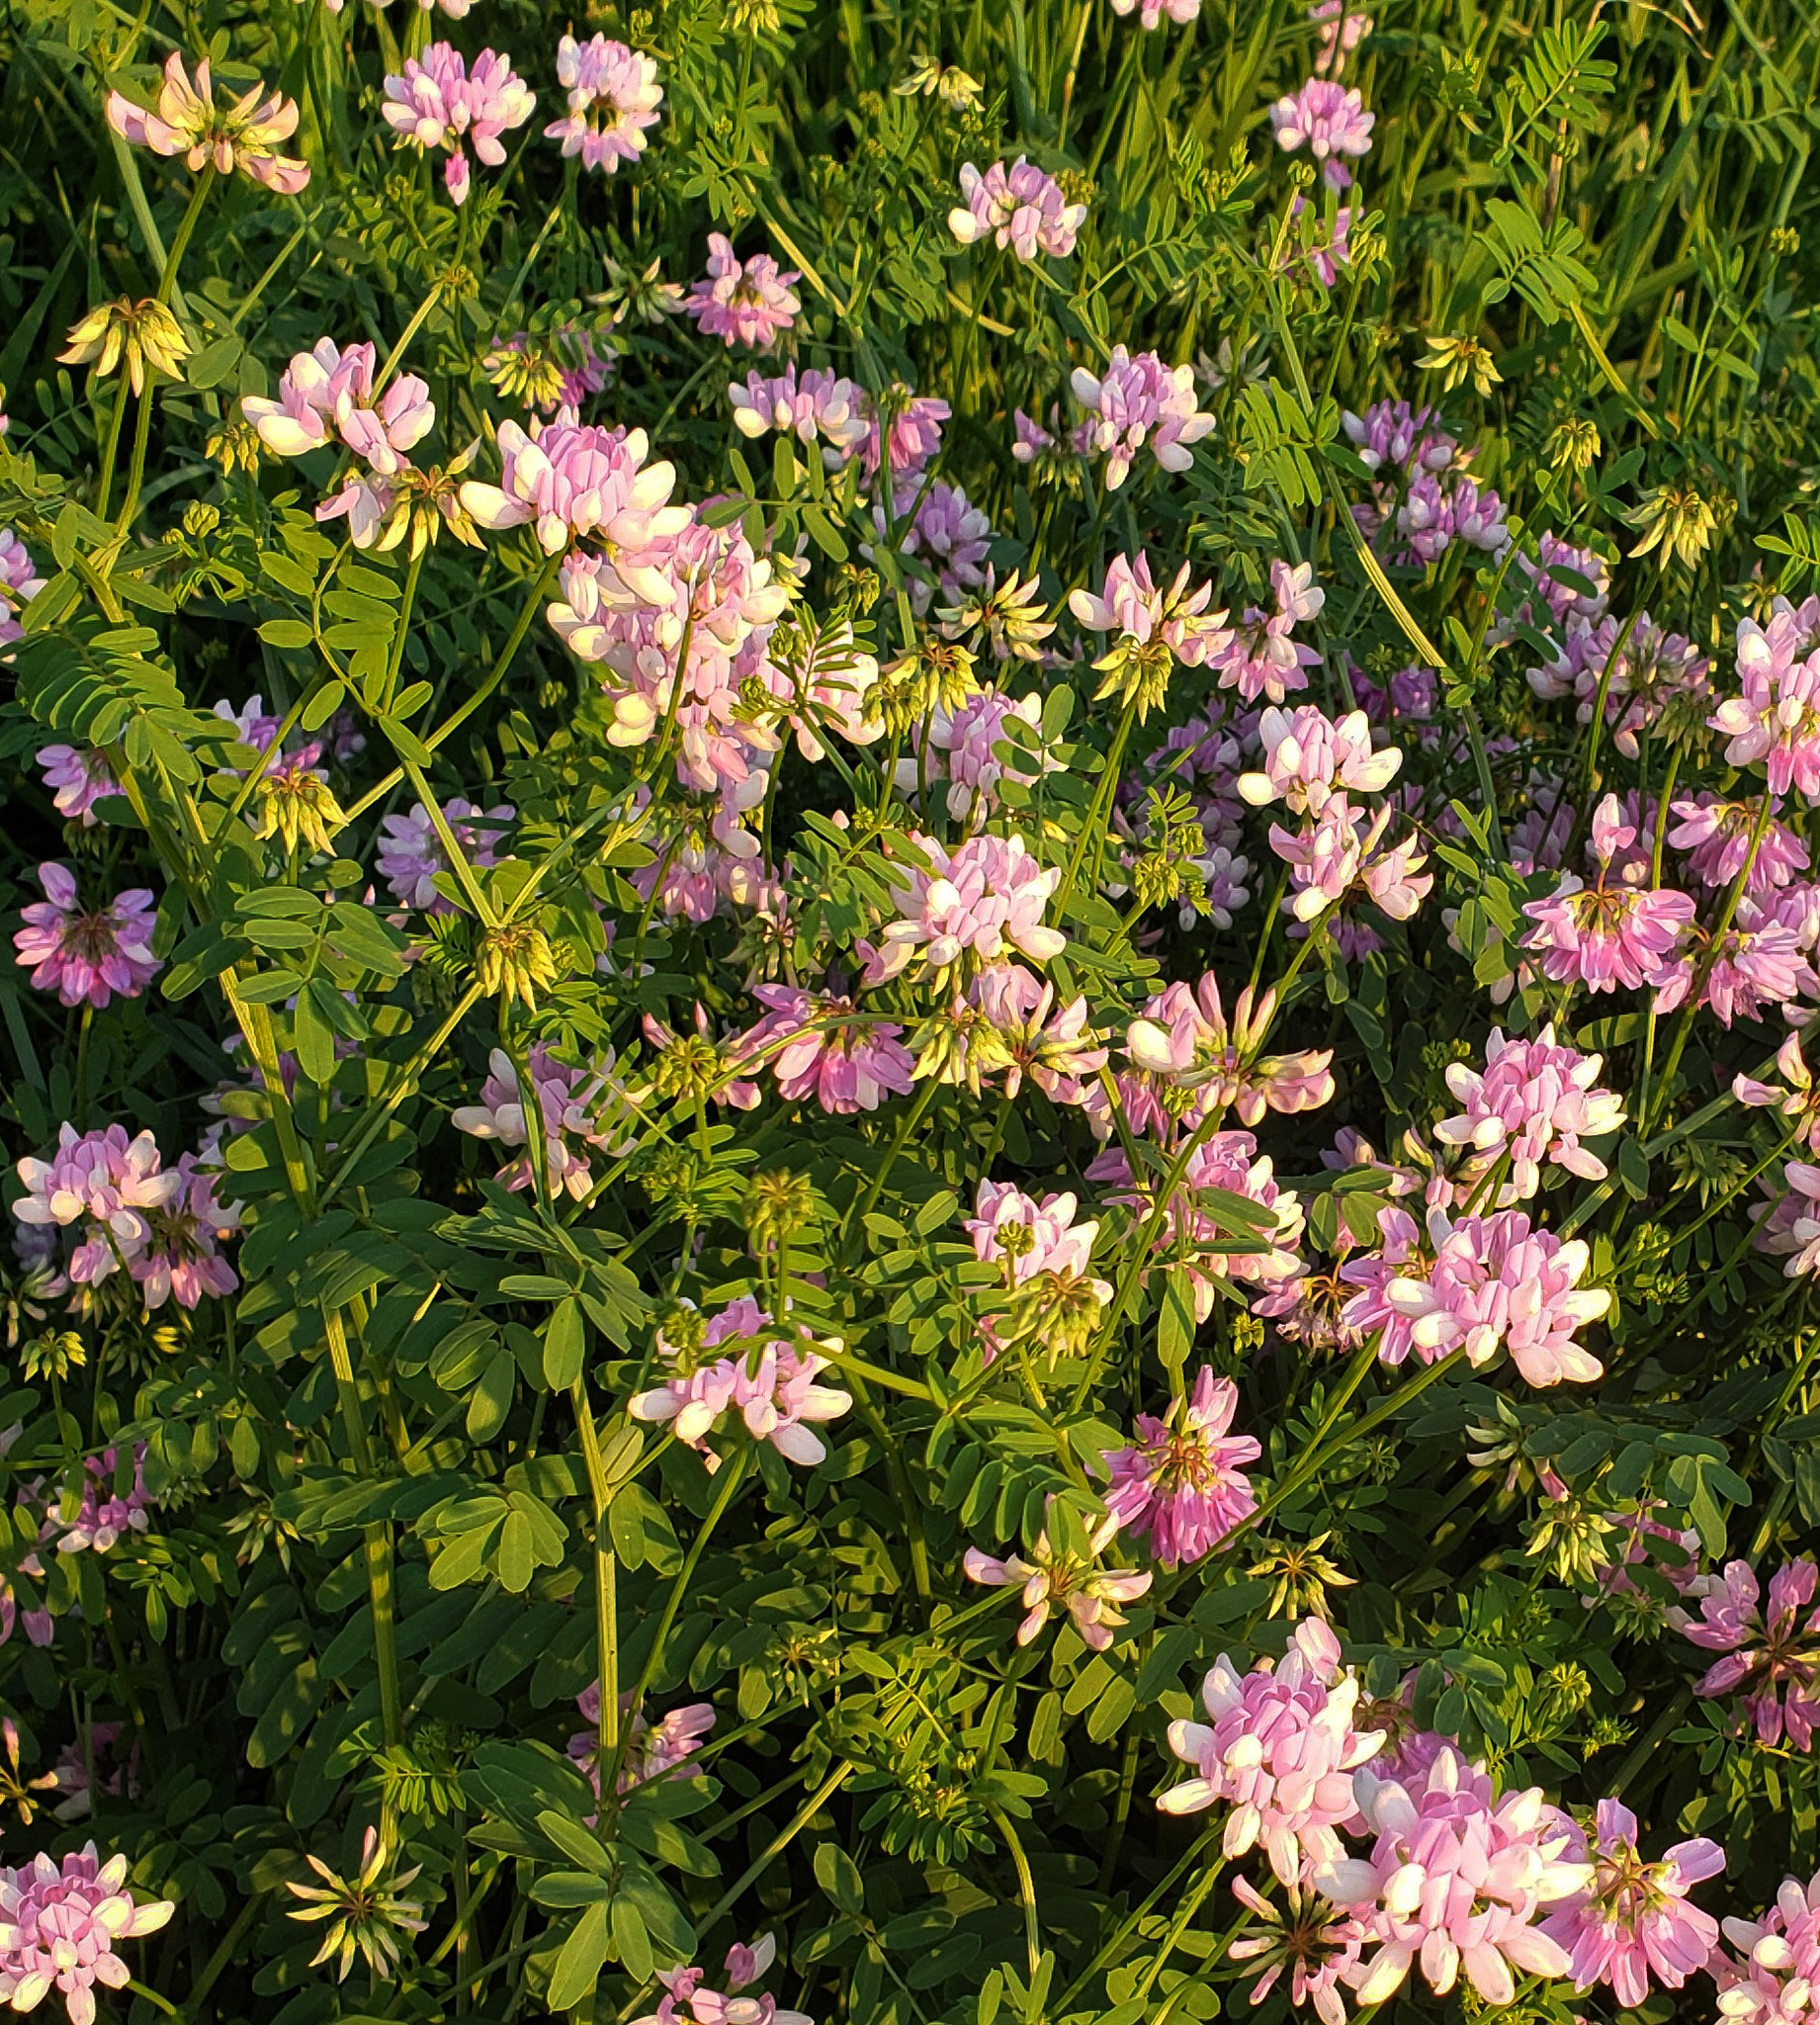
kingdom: Plantae
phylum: Tracheophyta
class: Magnoliopsida
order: Fabales
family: Fabaceae
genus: Coronilla
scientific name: Coronilla varia
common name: Crownvetch
